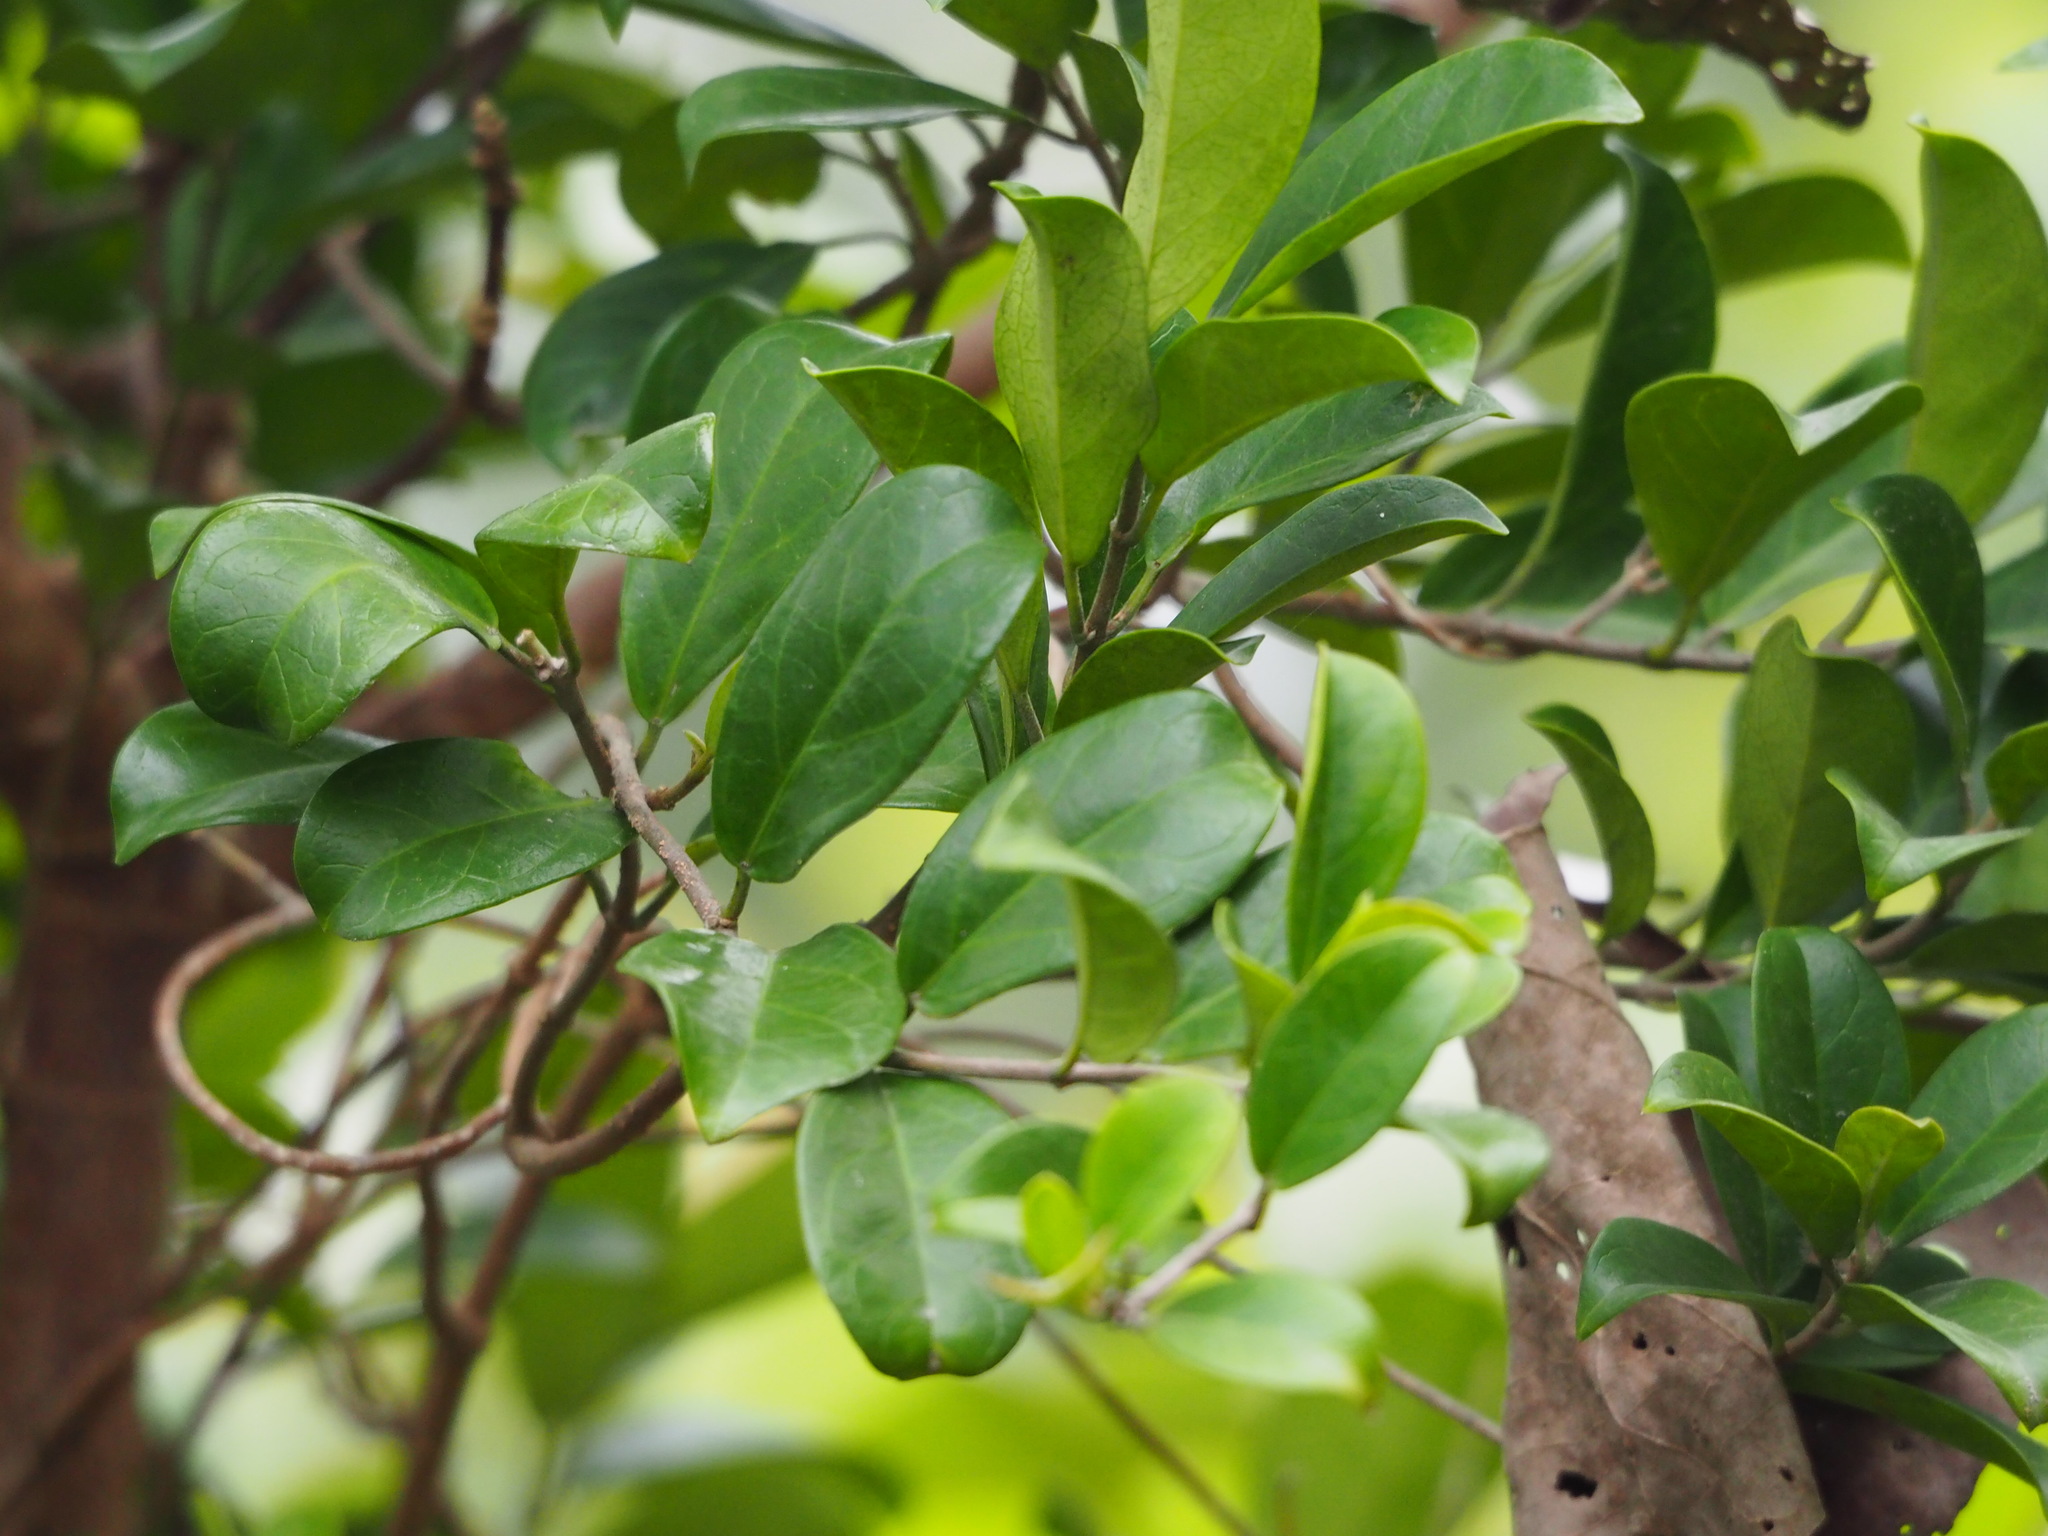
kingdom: Plantae
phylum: Tracheophyta
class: Magnoliopsida
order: Gentianales
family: Apocynaceae
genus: Gymnema
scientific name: Gymnema sylvestre
